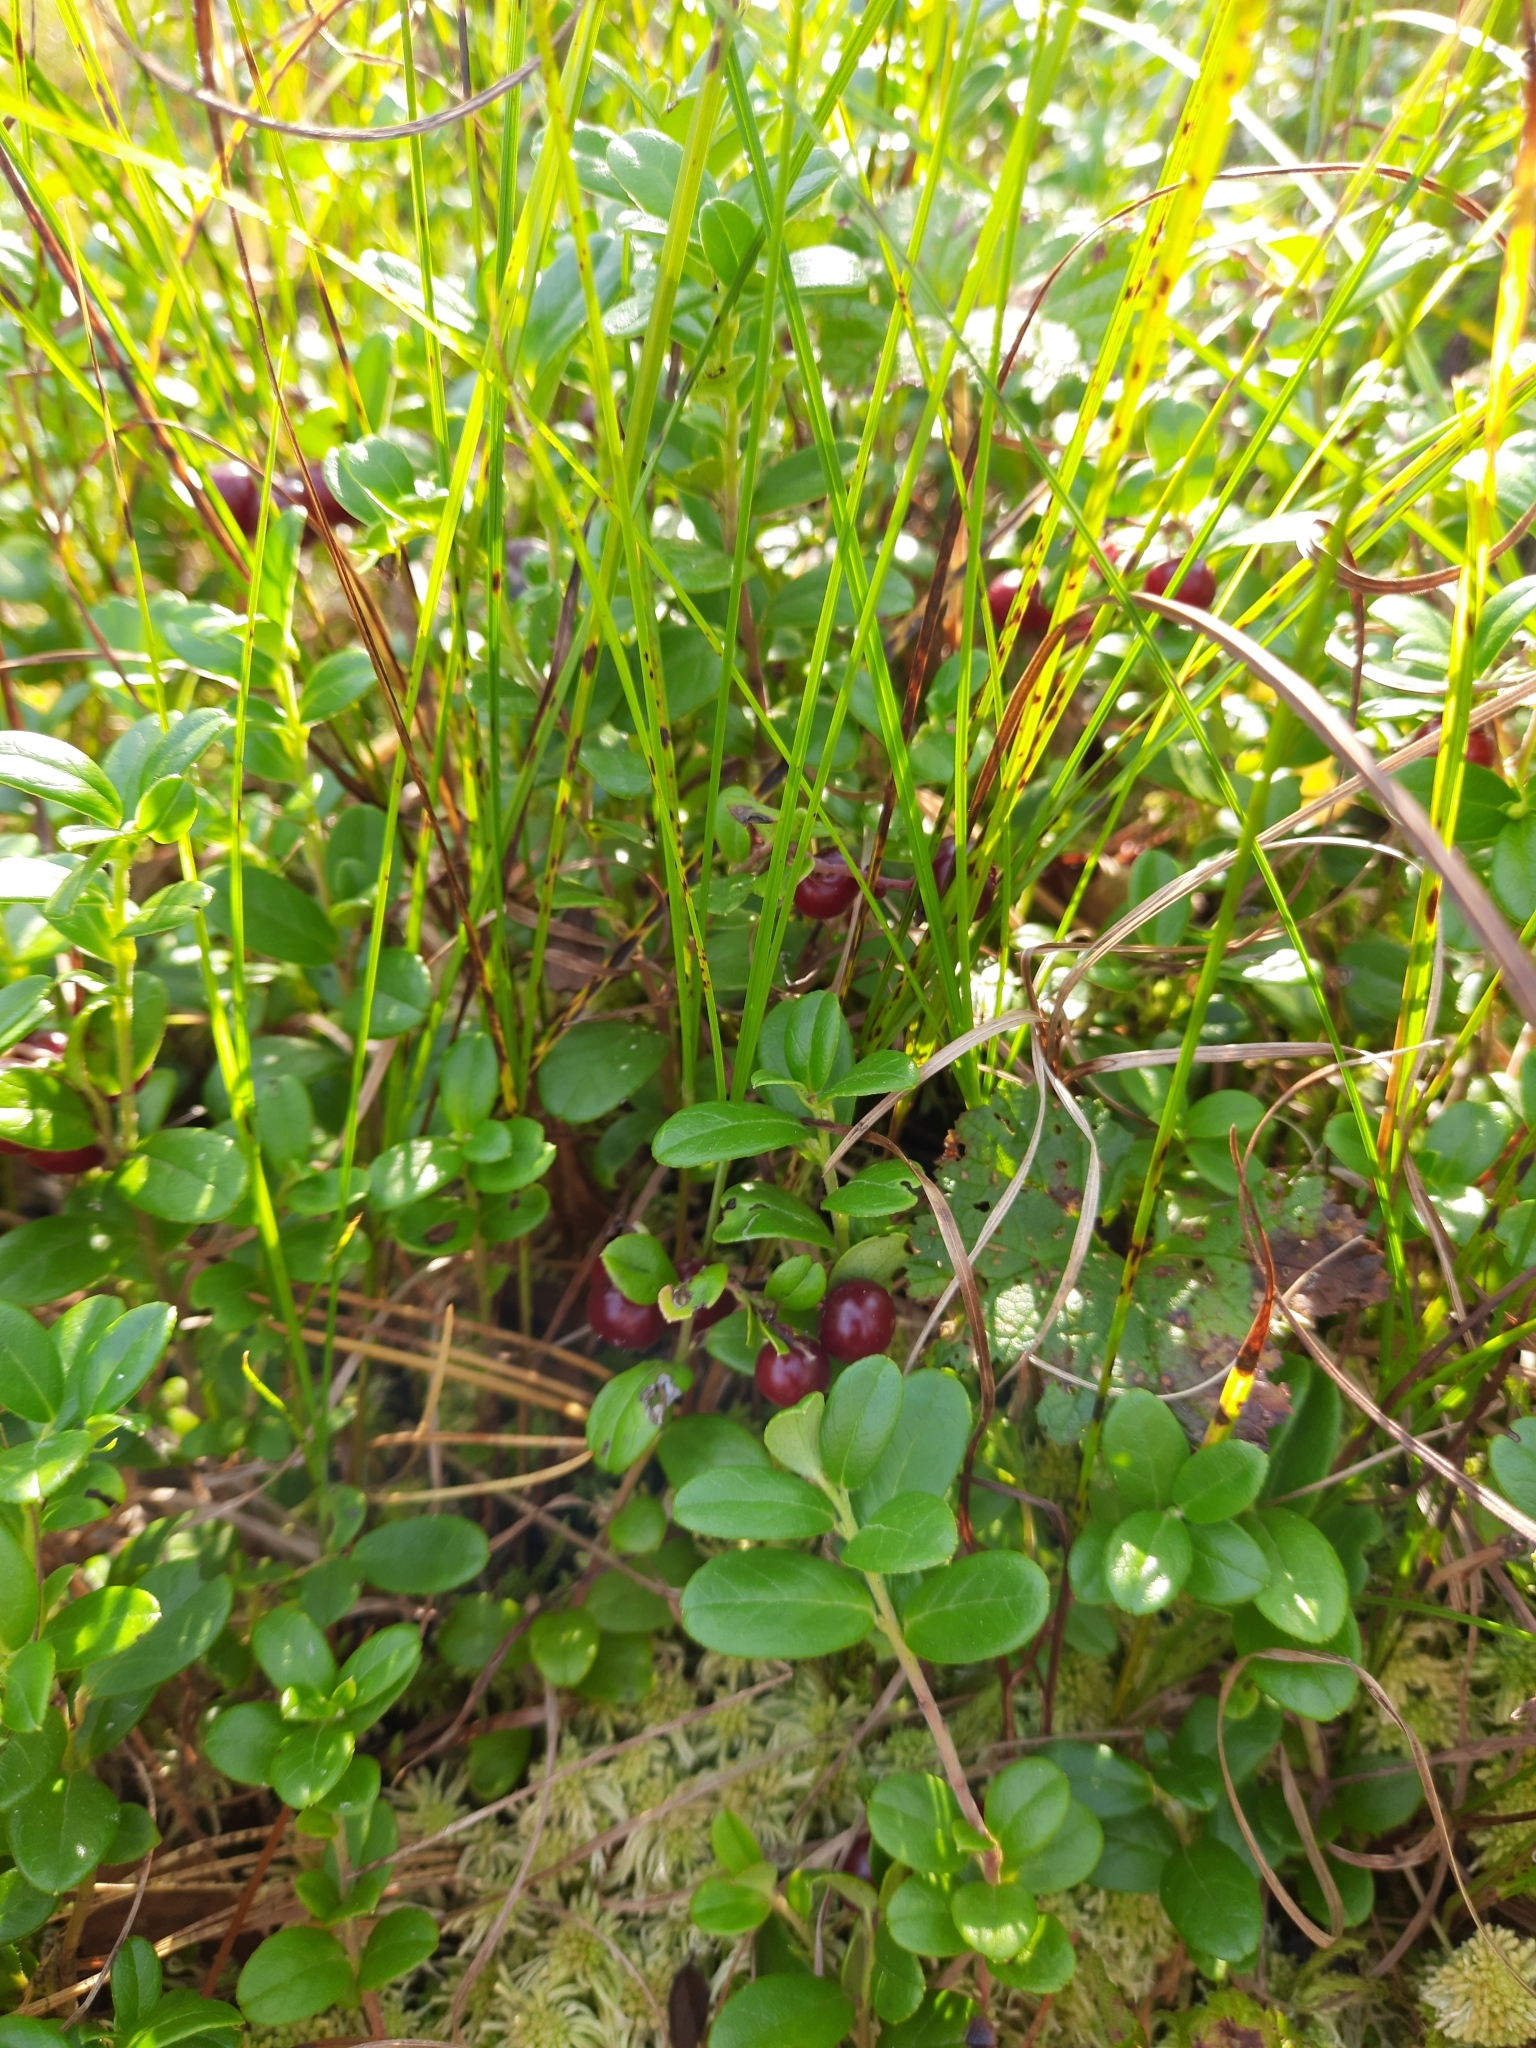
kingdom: Plantae
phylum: Tracheophyta
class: Magnoliopsida
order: Ericales
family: Ericaceae
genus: Vaccinium
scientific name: Vaccinium vitis-idaea
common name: Cowberry
